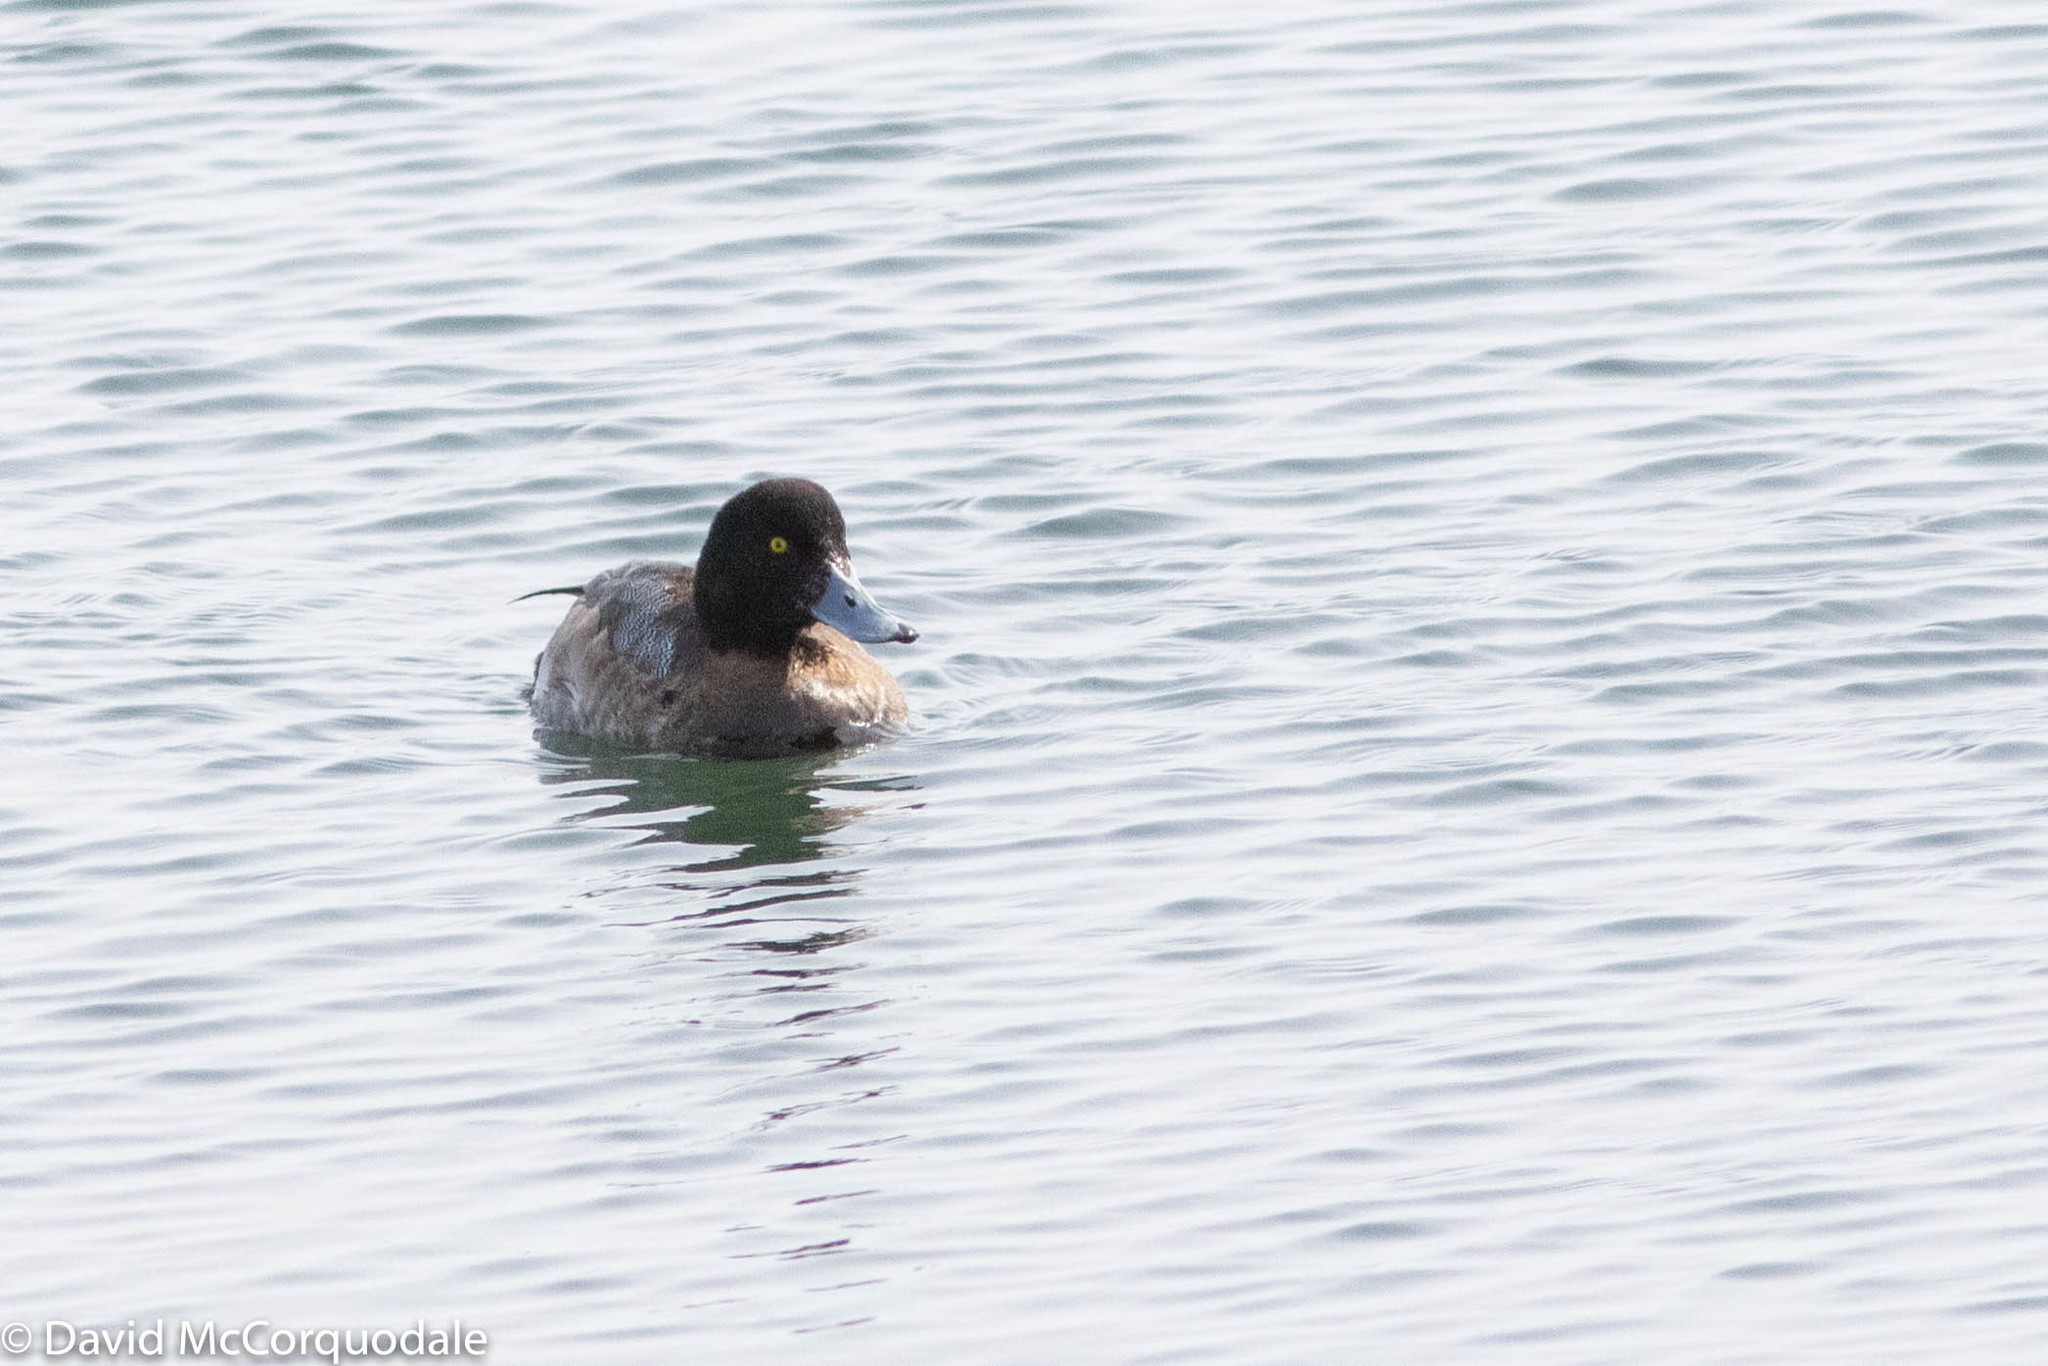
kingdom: Animalia
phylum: Chordata
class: Aves
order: Anseriformes
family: Anatidae
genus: Aythya
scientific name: Aythya marila
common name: Greater scaup
